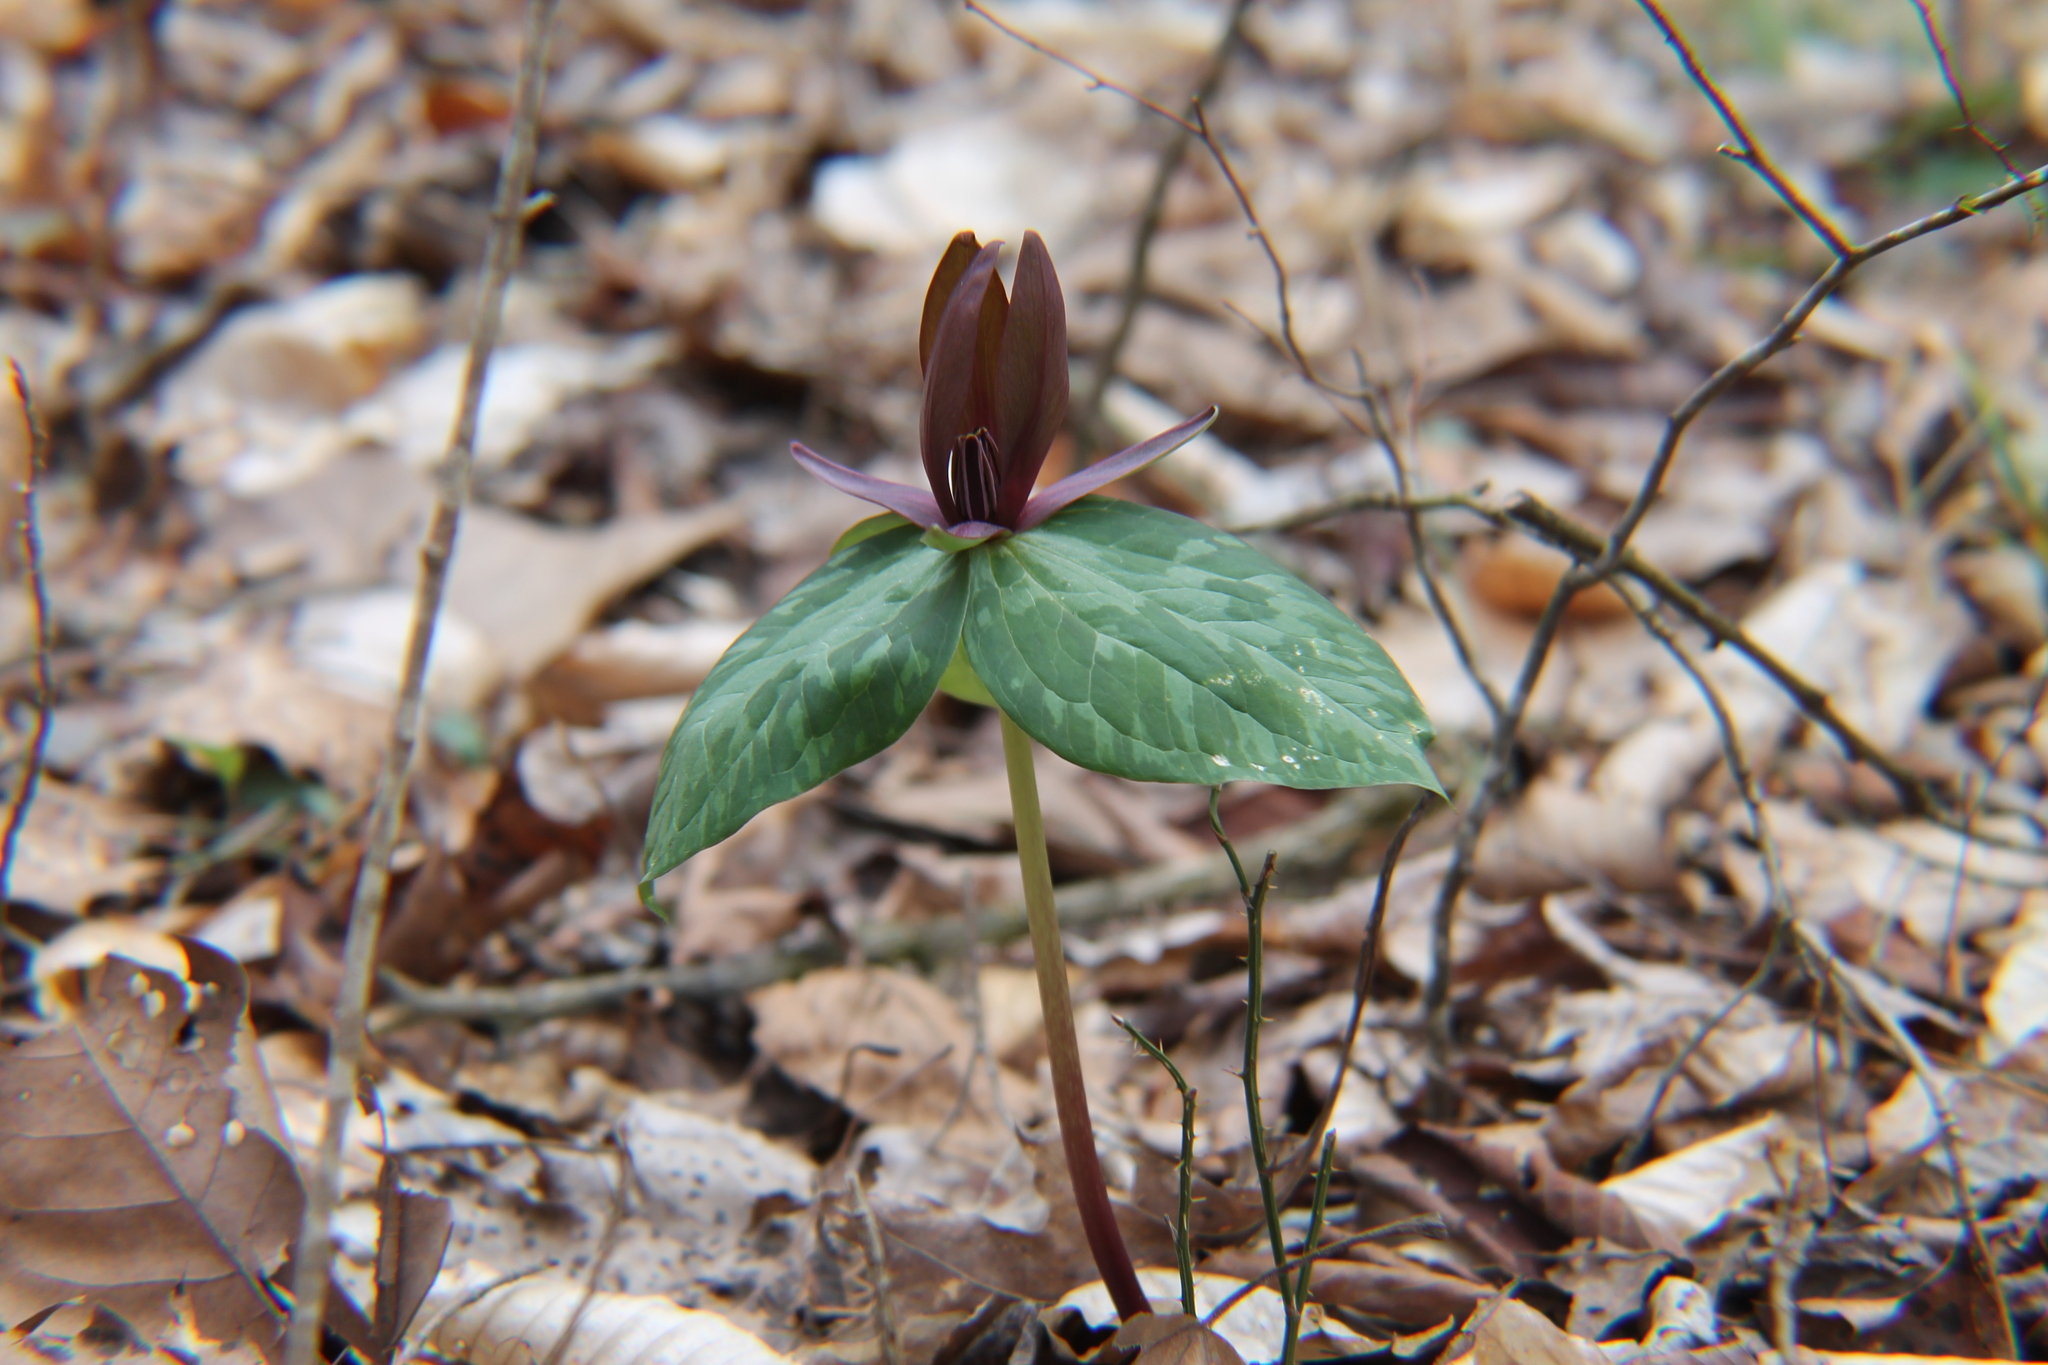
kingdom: Plantae
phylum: Tracheophyta
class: Liliopsida
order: Liliales
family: Melanthiaceae
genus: Trillium
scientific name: Trillium cuneatum
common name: Cuneate trillium
